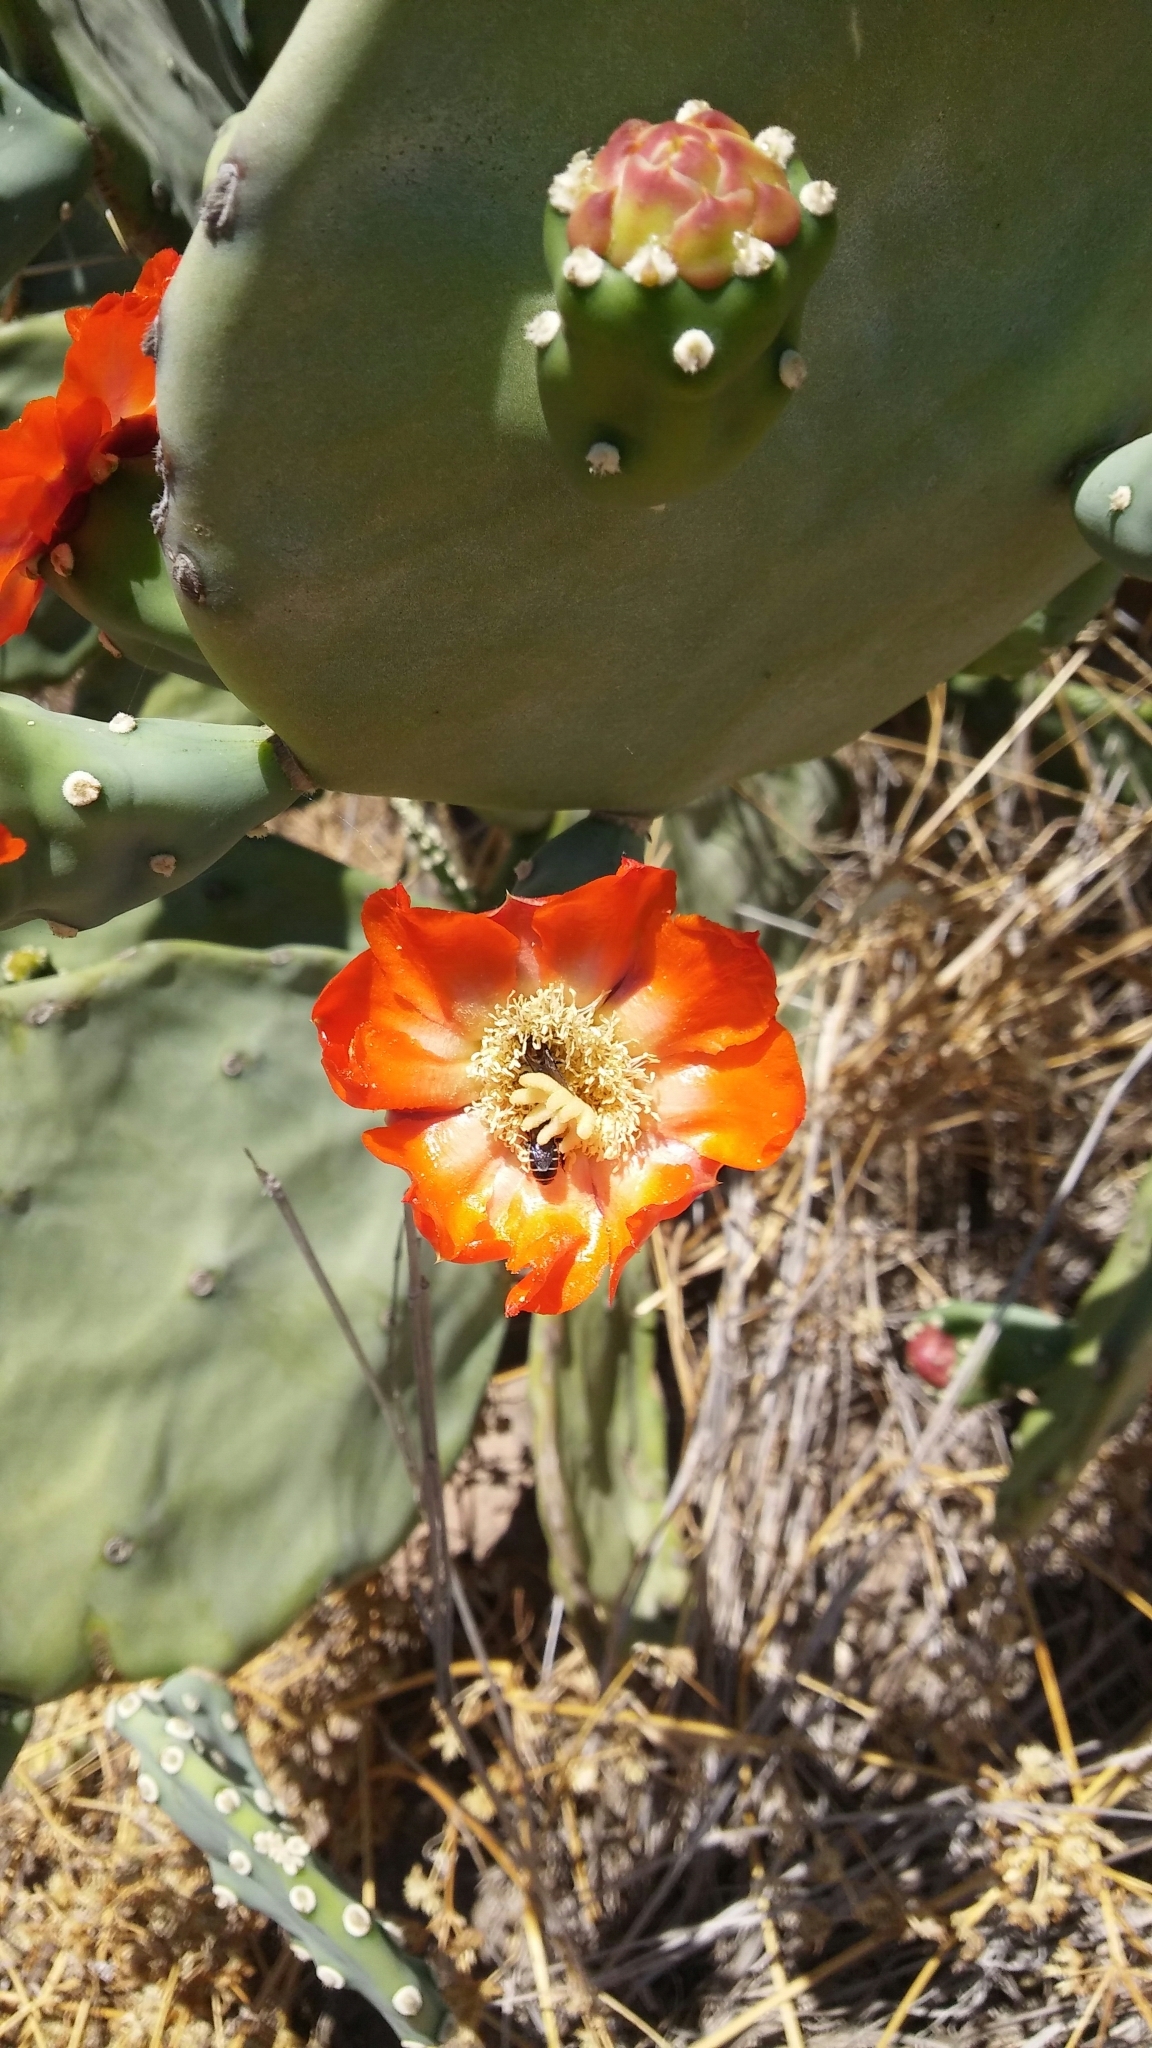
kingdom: Plantae
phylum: Tracheophyta
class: Magnoliopsida
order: Caryophyllales
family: Cactaceae
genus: Opuntia
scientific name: Opuntia quimilo
